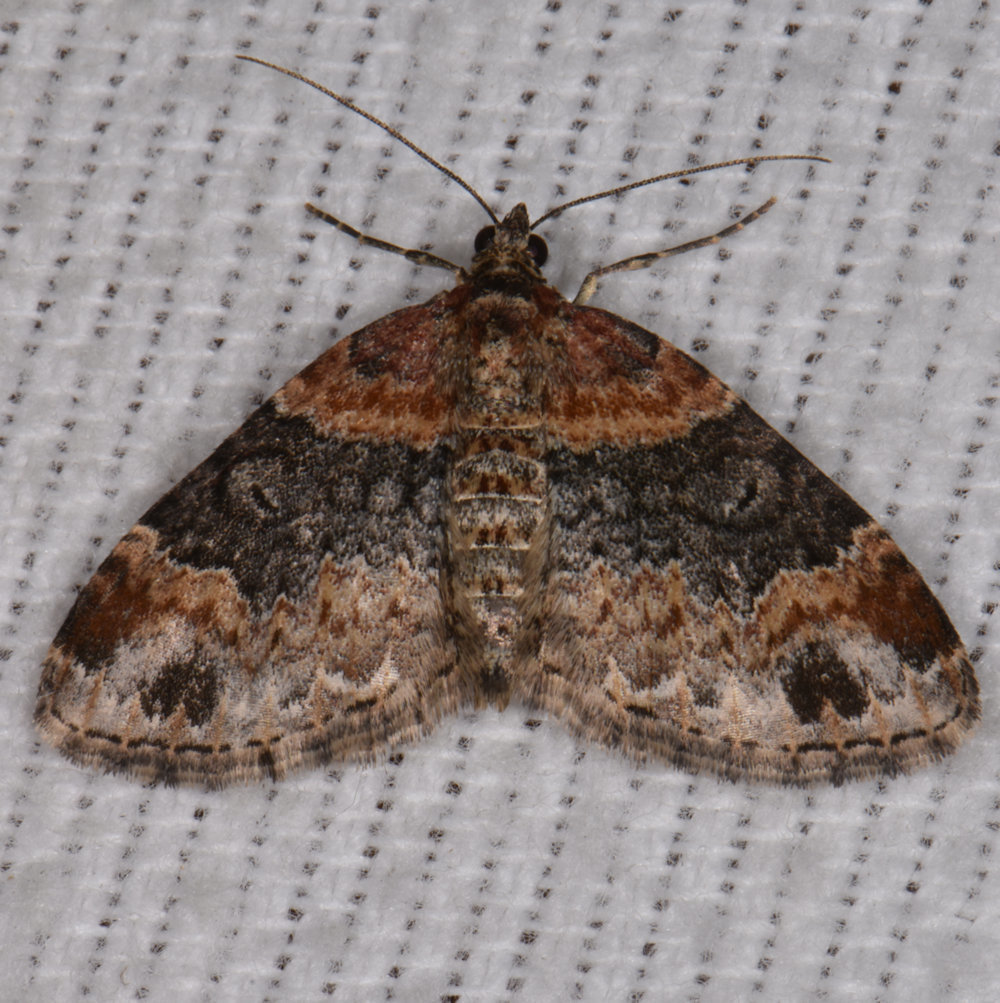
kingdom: Animalia
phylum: Arthropoda
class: Insecta
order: Lepidoptera
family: Geometridae
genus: Xanthorhoe
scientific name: Xanthorhoe ferrugata
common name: Dark-barred twin-spot carpet
